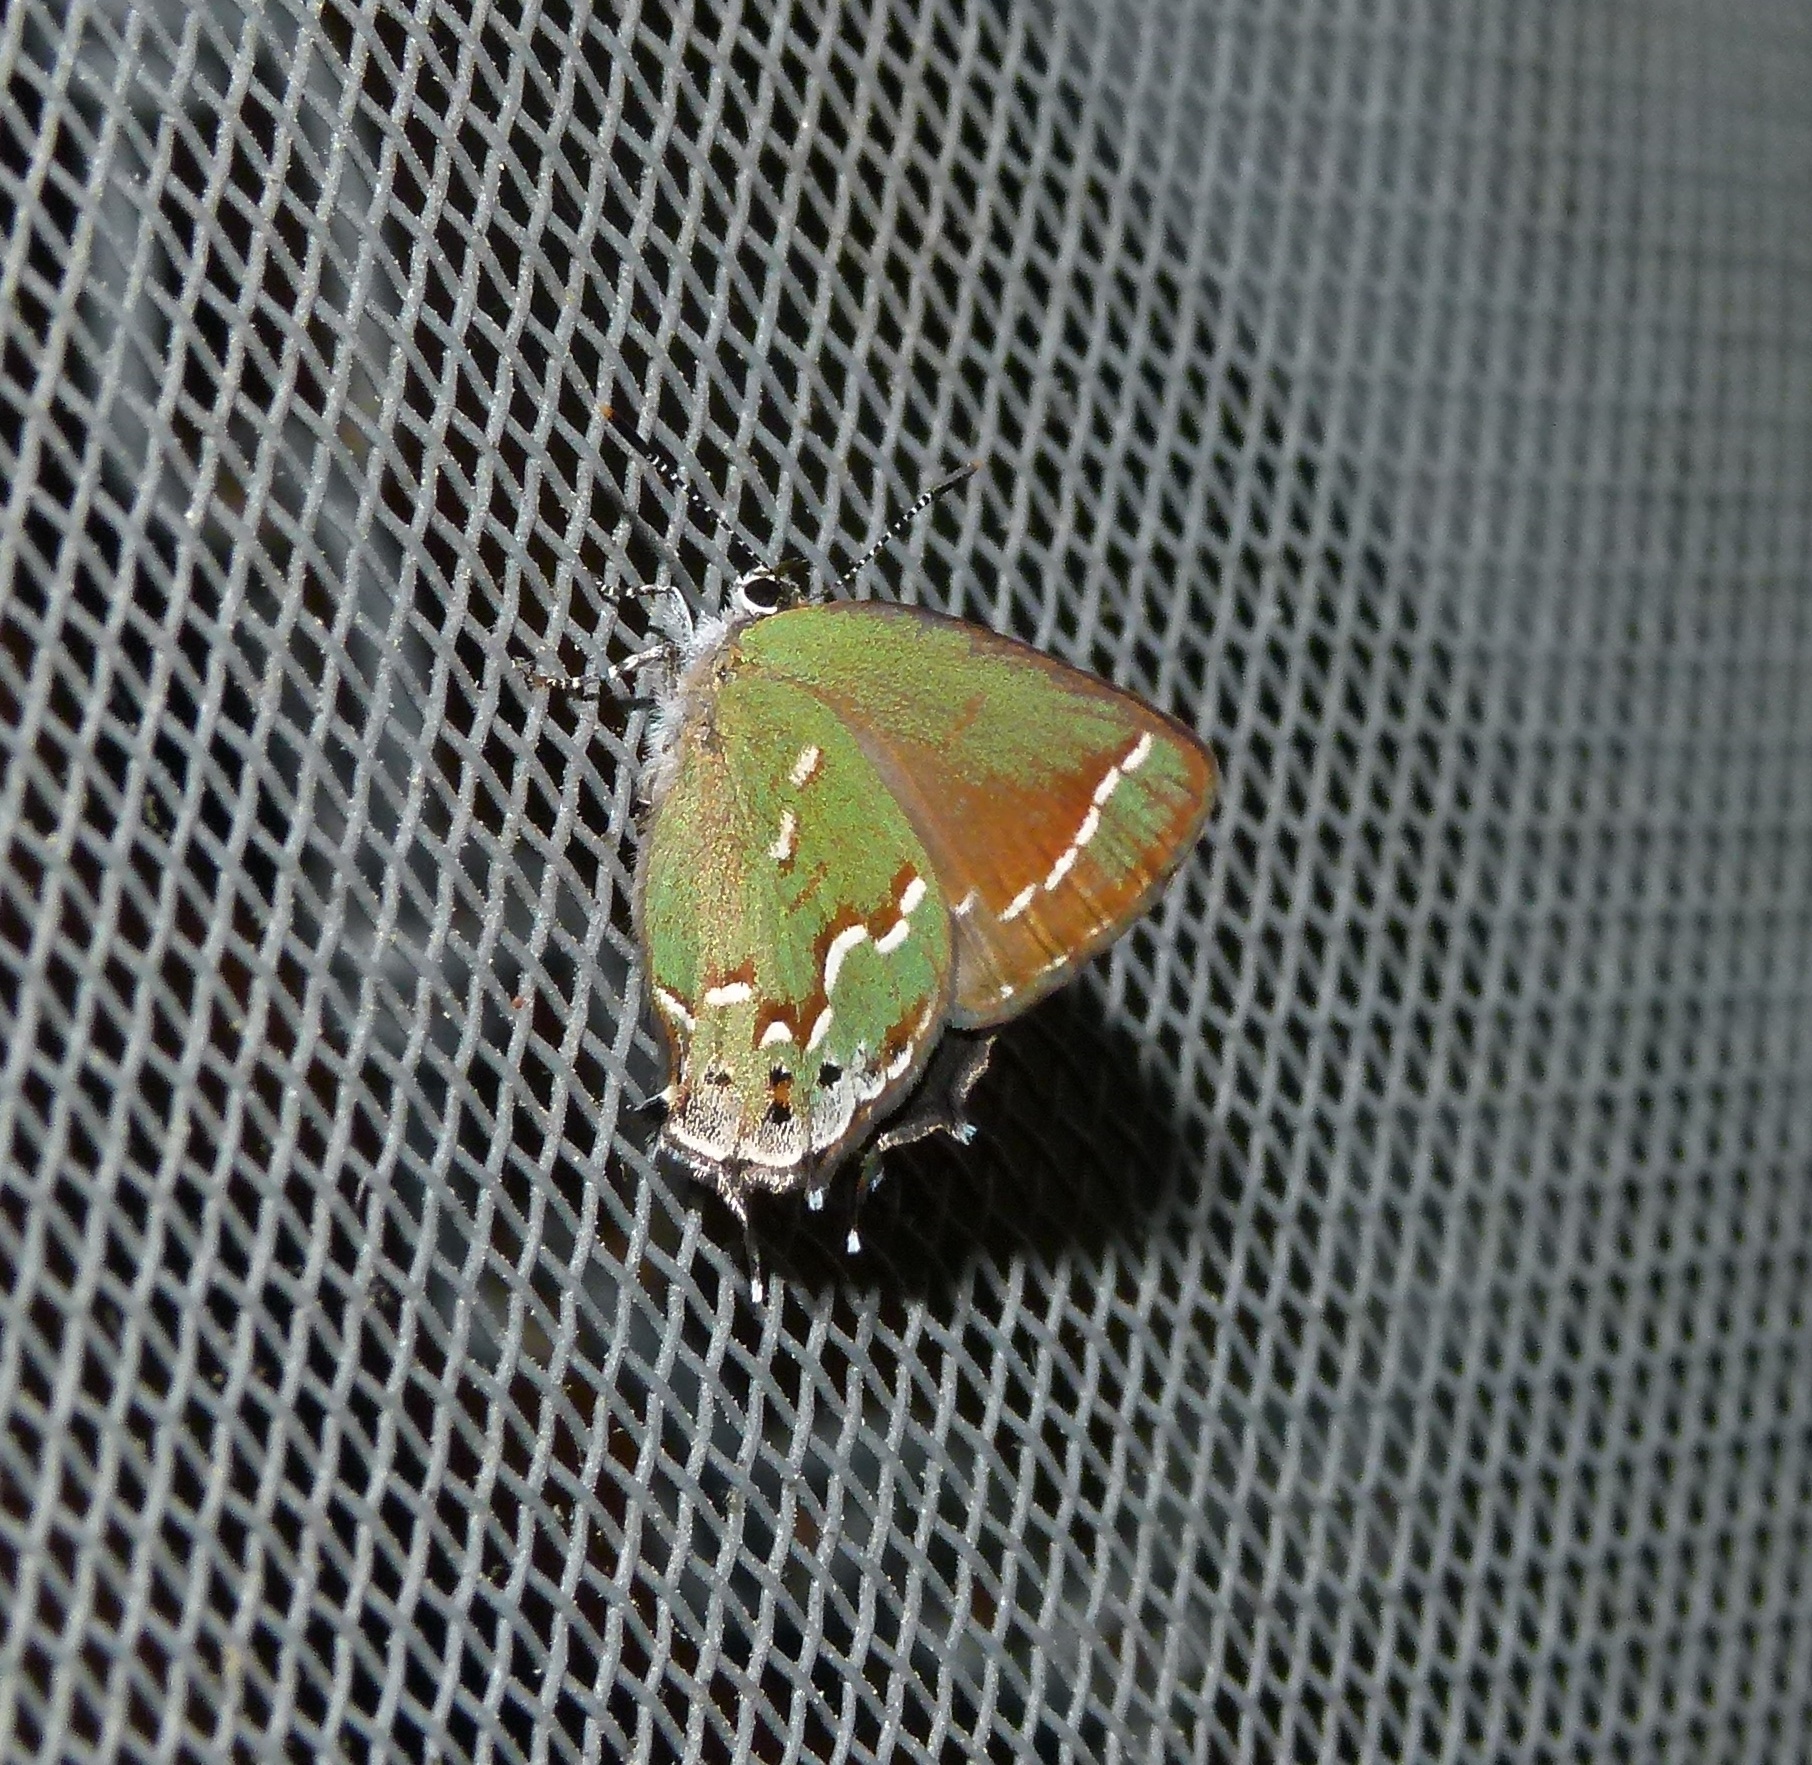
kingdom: Animalia
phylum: Arthropoda
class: Insecta
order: Lepidoptera
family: Lycaenidae
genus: Mitoura
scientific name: Mitoura gryneus
